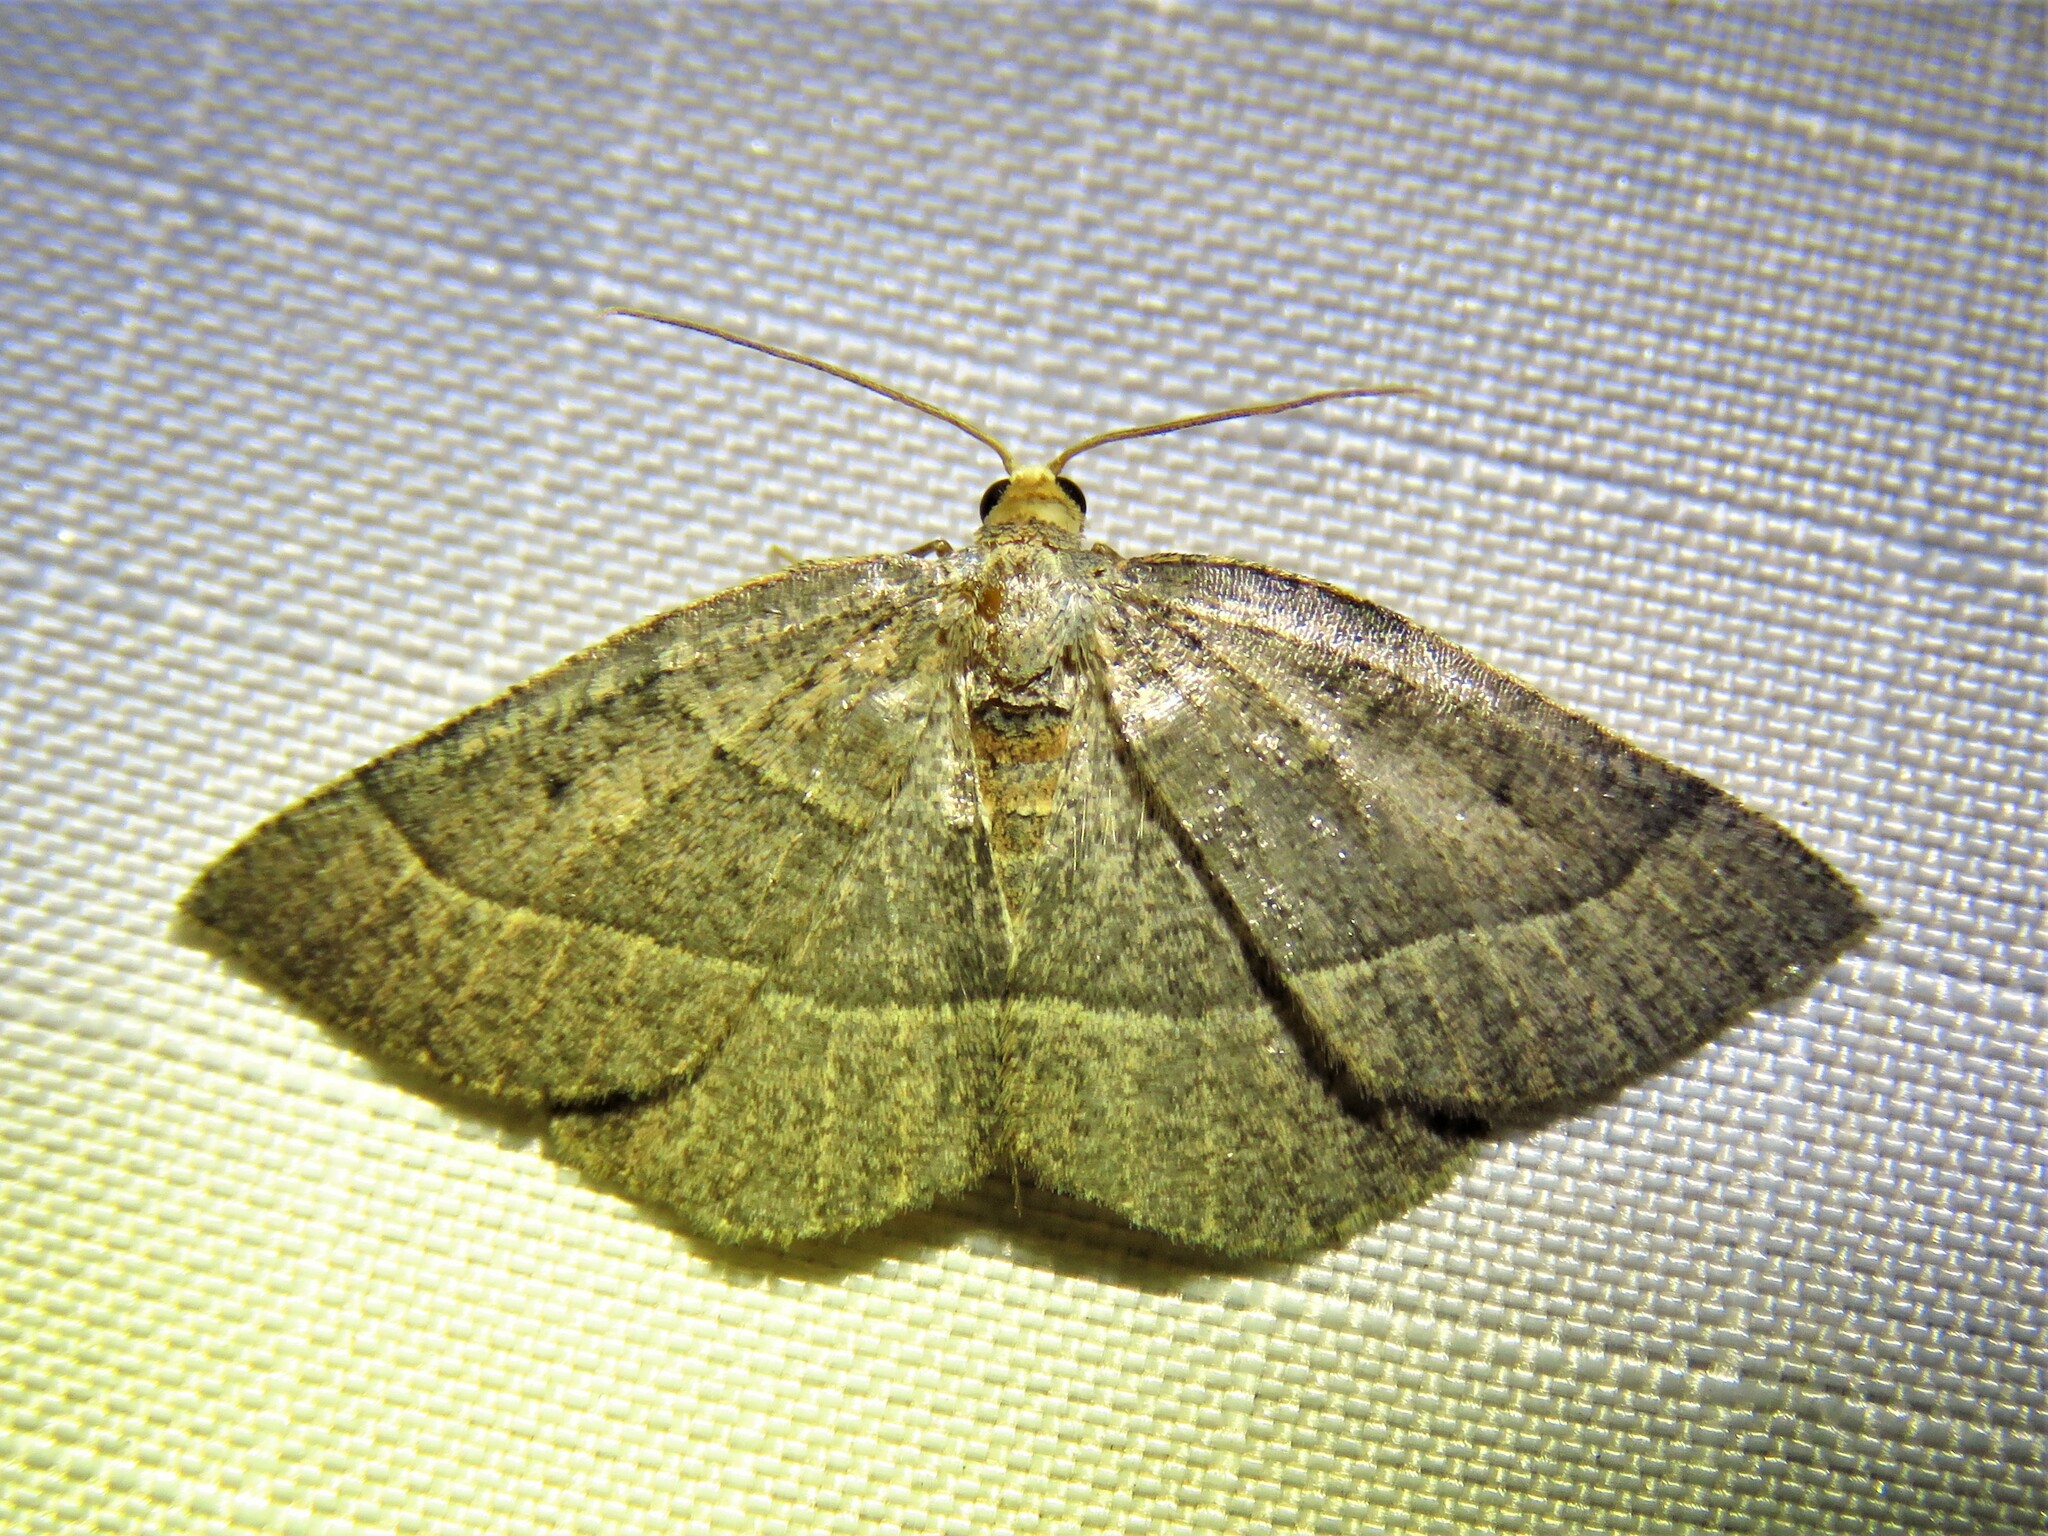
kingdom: Animalia
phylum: Arthropoda
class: Insecta
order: Lepidoptera
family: Geometridae
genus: Episemasia
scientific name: Episemasia cervinaria
